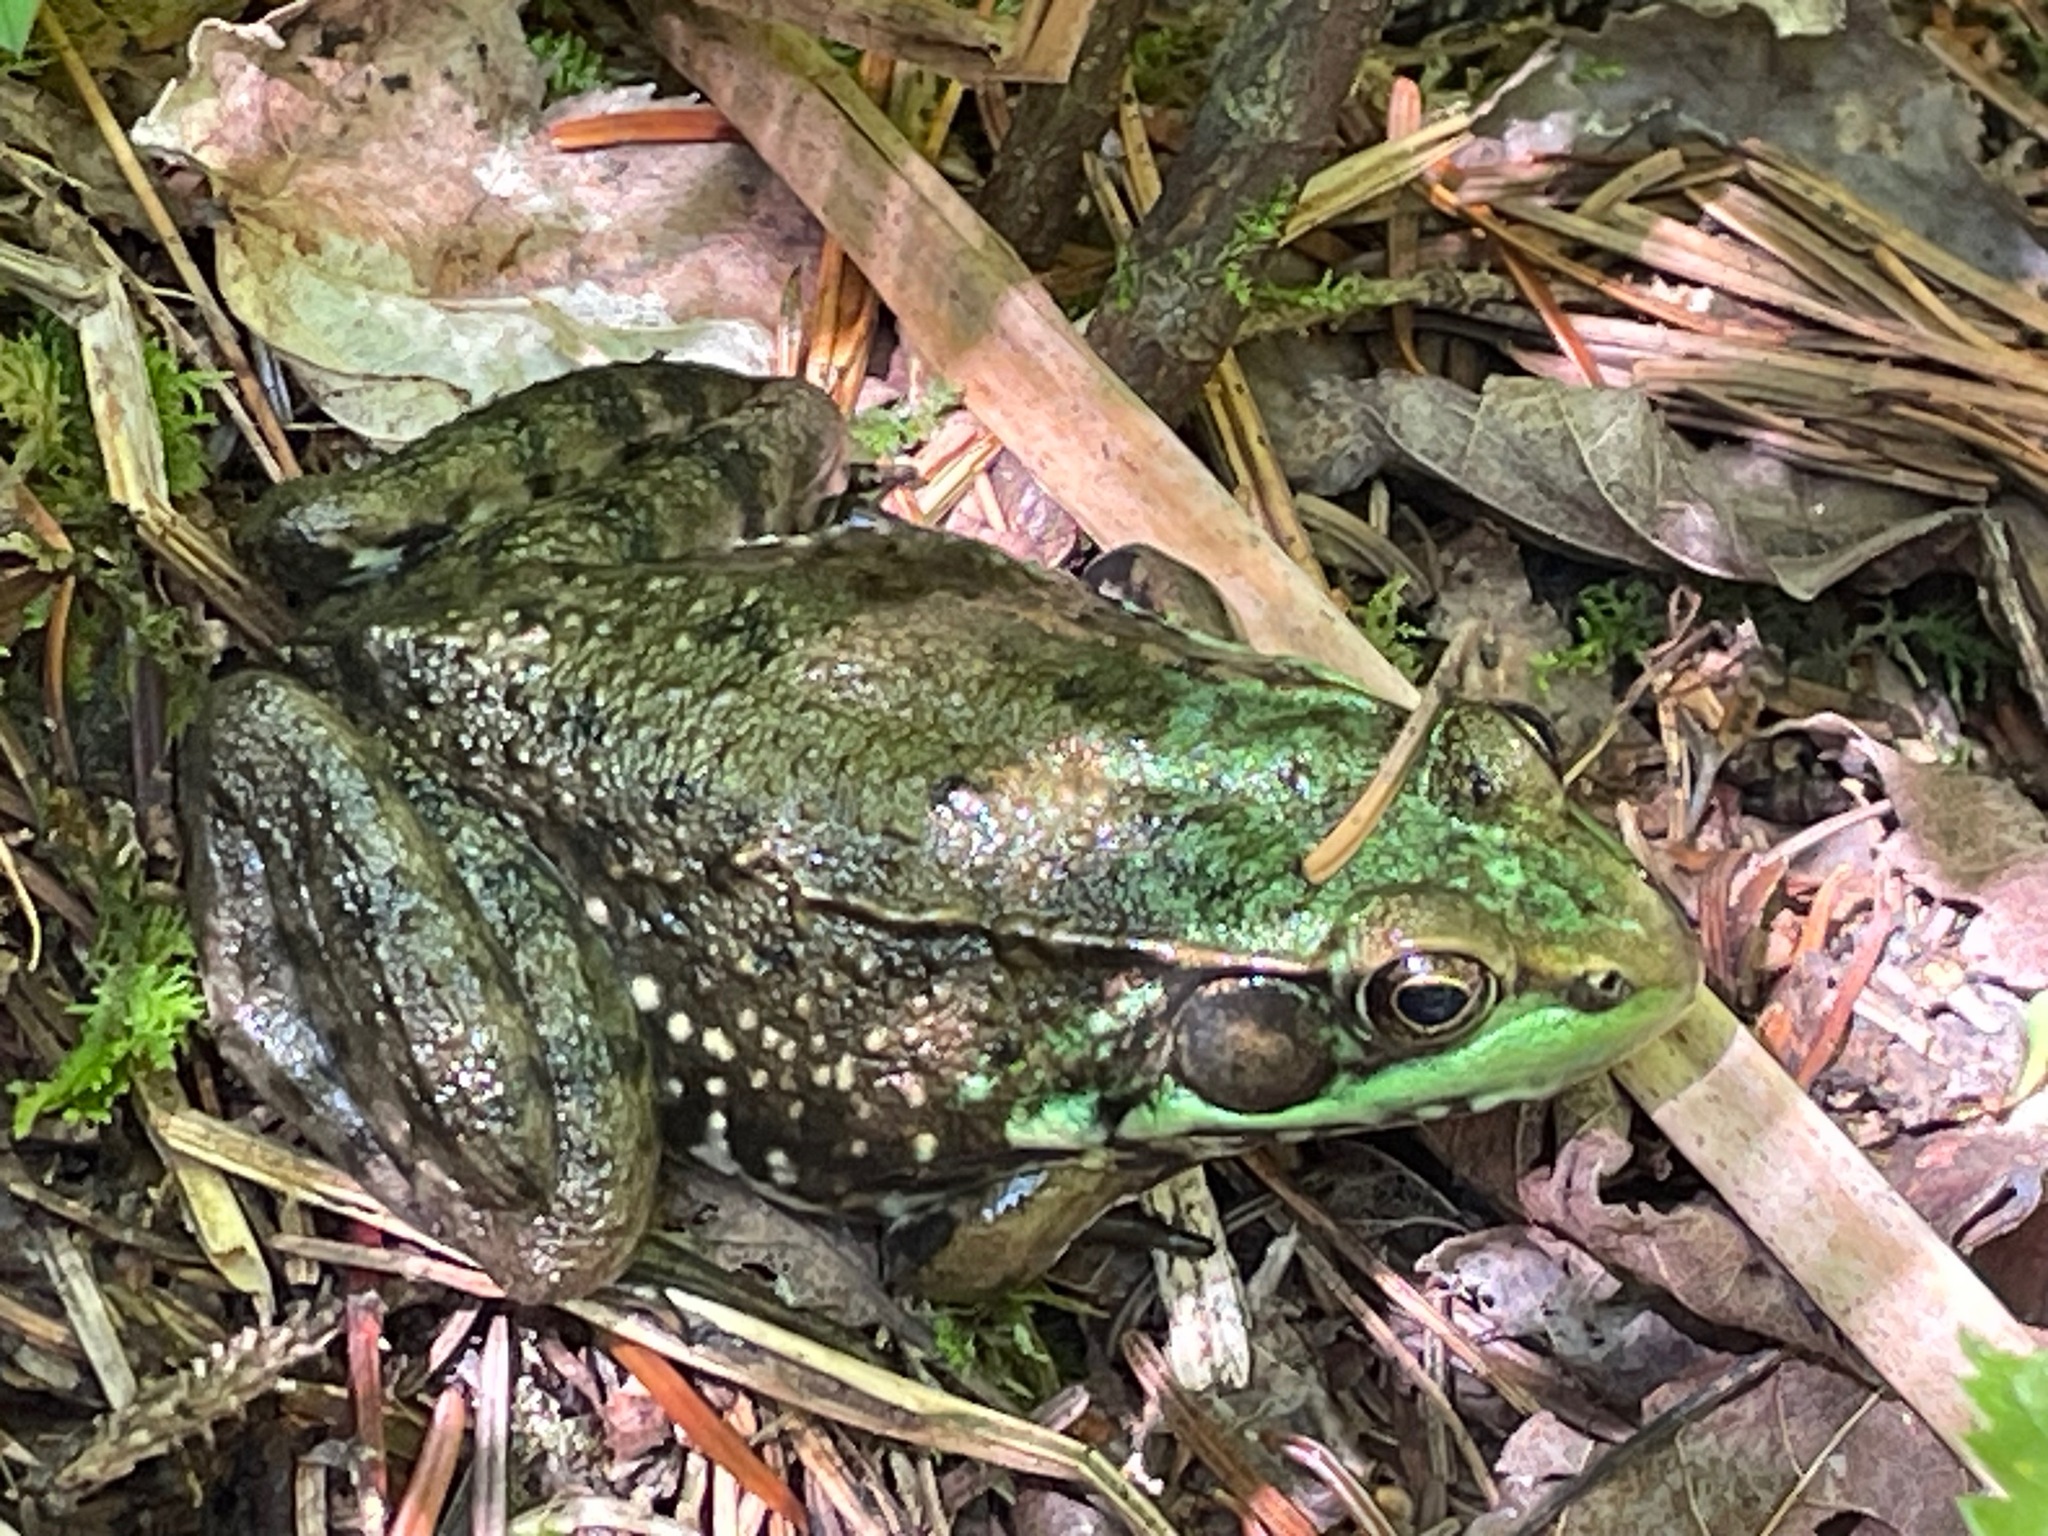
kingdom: Animalia
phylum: Chordata
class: Amphibia
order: Anura
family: Ranidae
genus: Lithobates
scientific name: Lithobates clamitans
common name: Green frog
